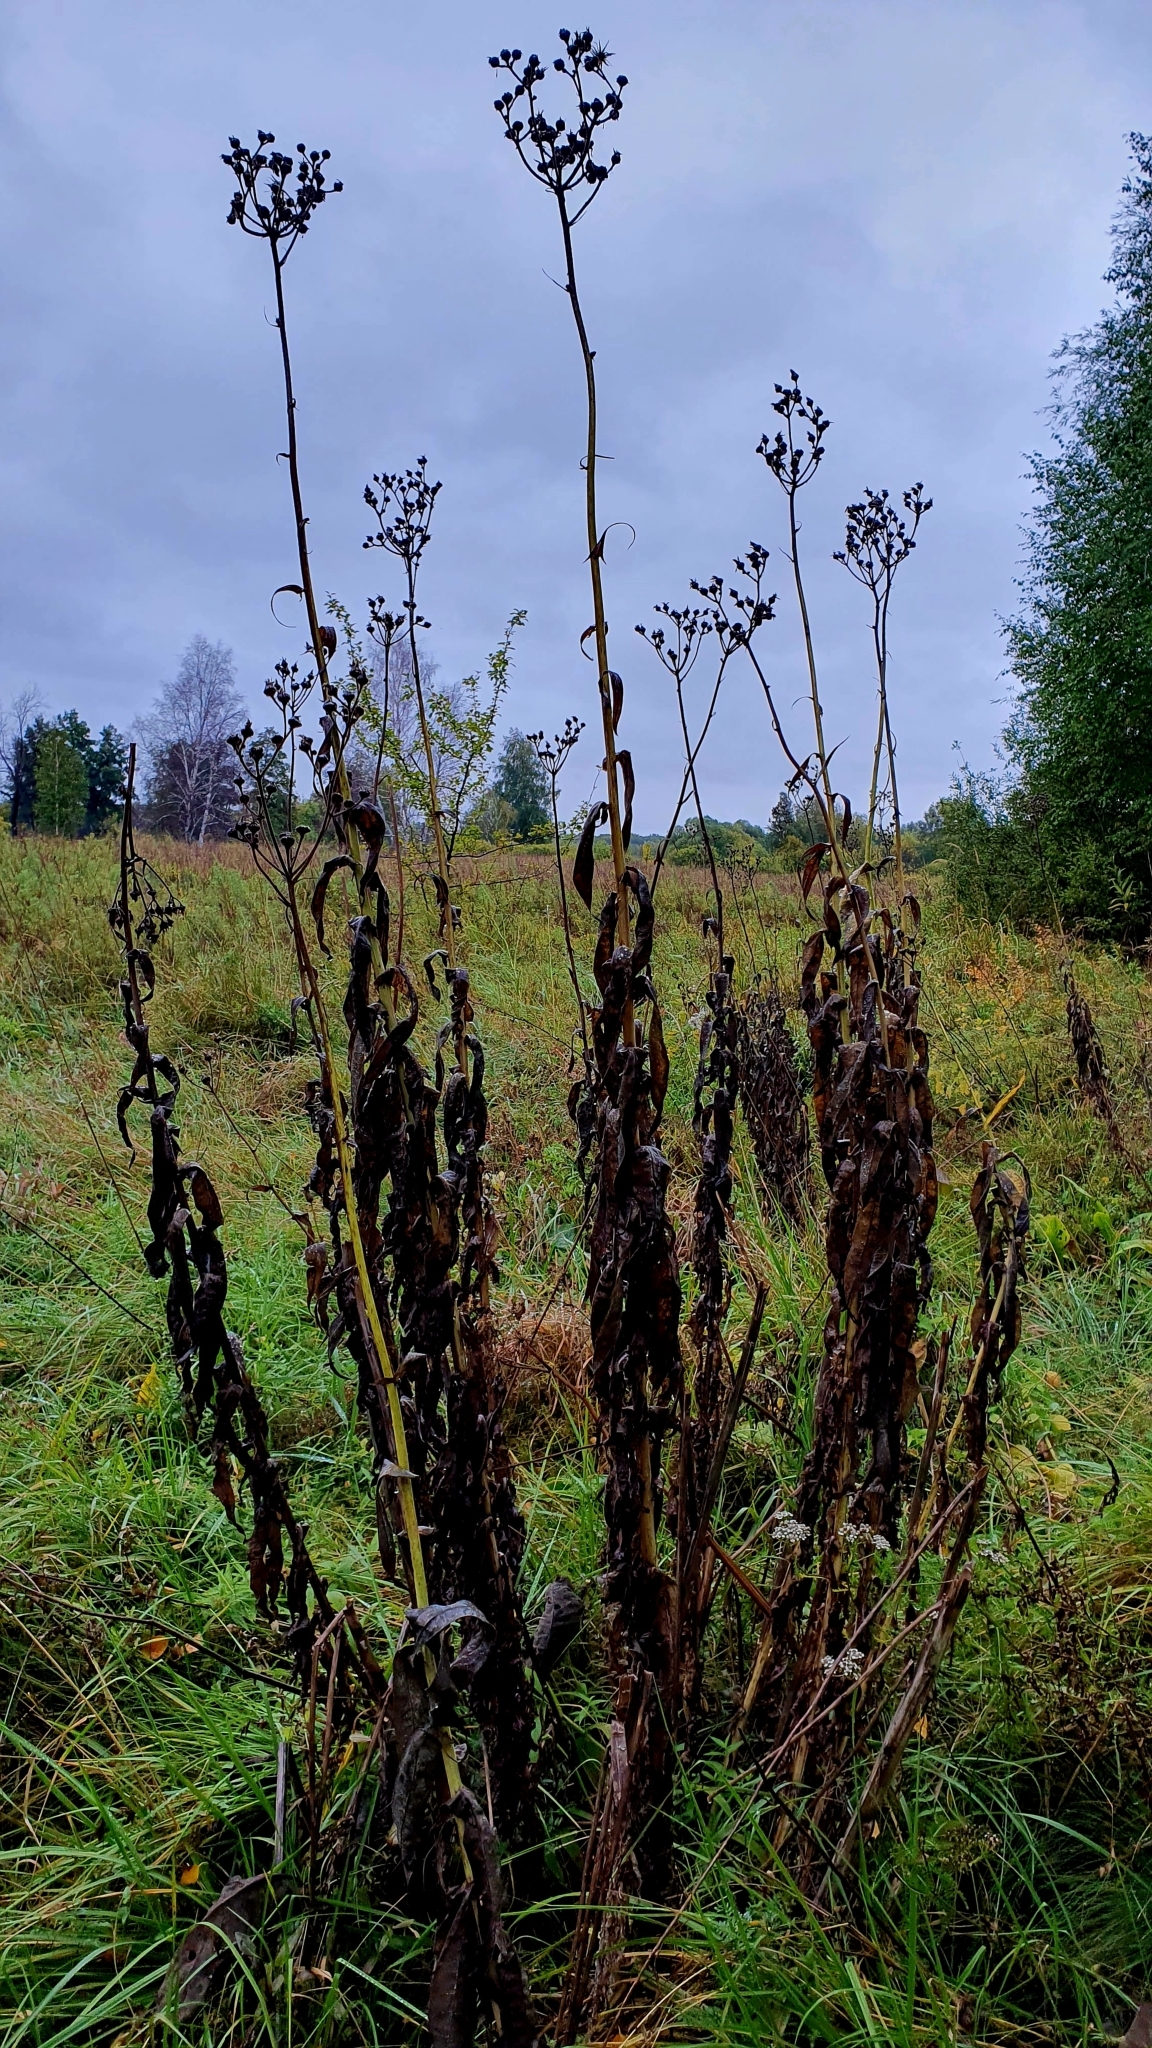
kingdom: Plantae
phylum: Tracheophyta
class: Magnoliopsida
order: Asterales
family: Asteraceae
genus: Sonchus
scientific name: Sonchus palustris
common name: Marsh sow-thistle
